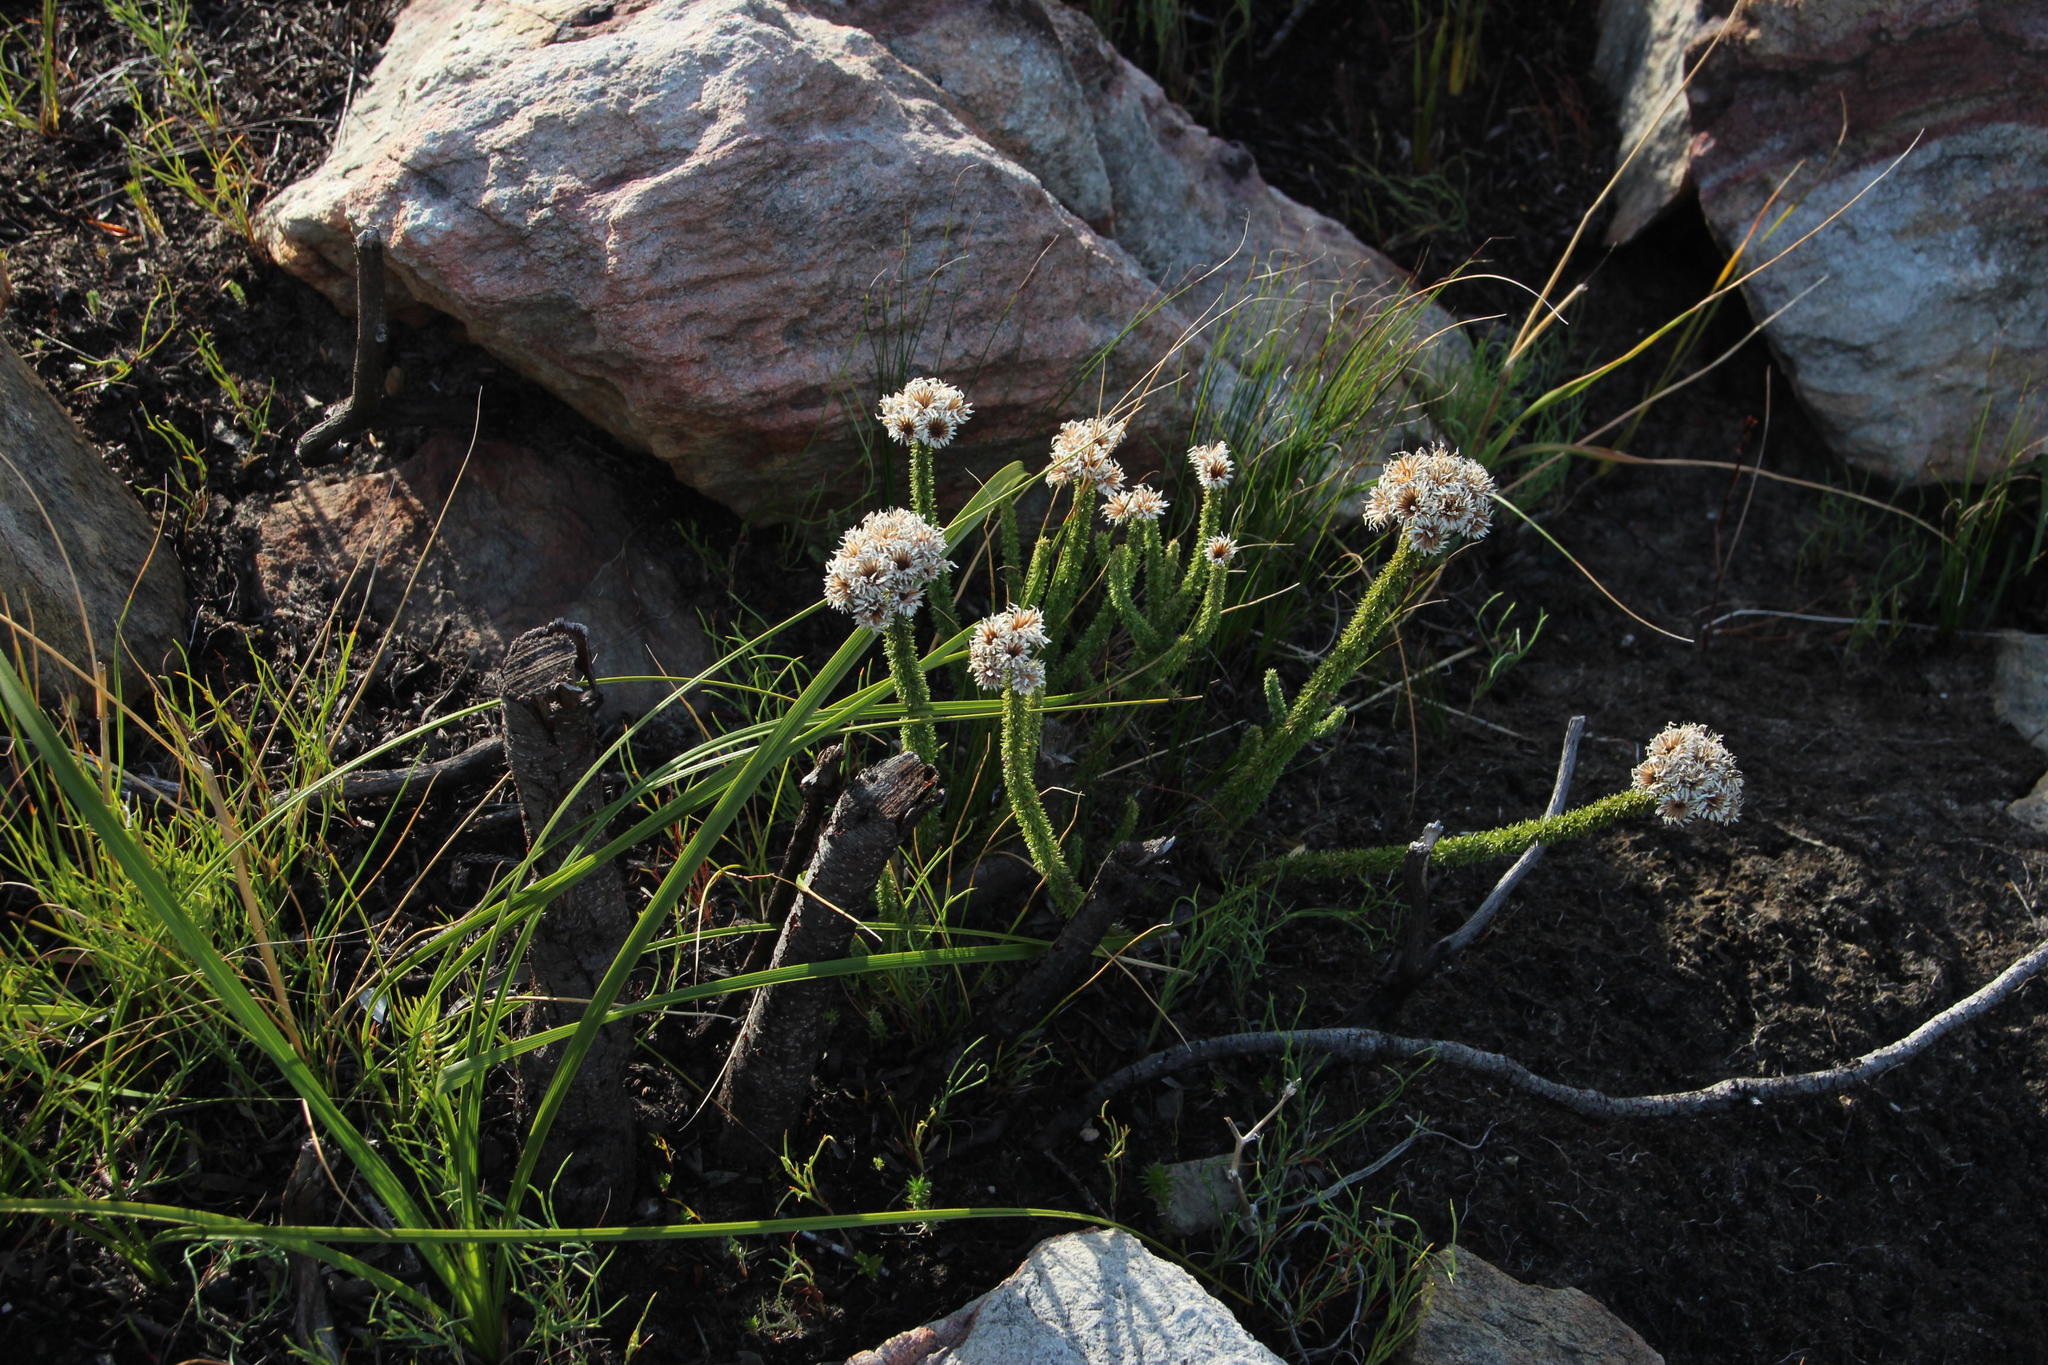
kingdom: Plantae
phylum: Tracheophyta
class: Magnoliopsida
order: Asterales
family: Asteraceae
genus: Lachnospermum
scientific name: Lachnospermum umbellatum
